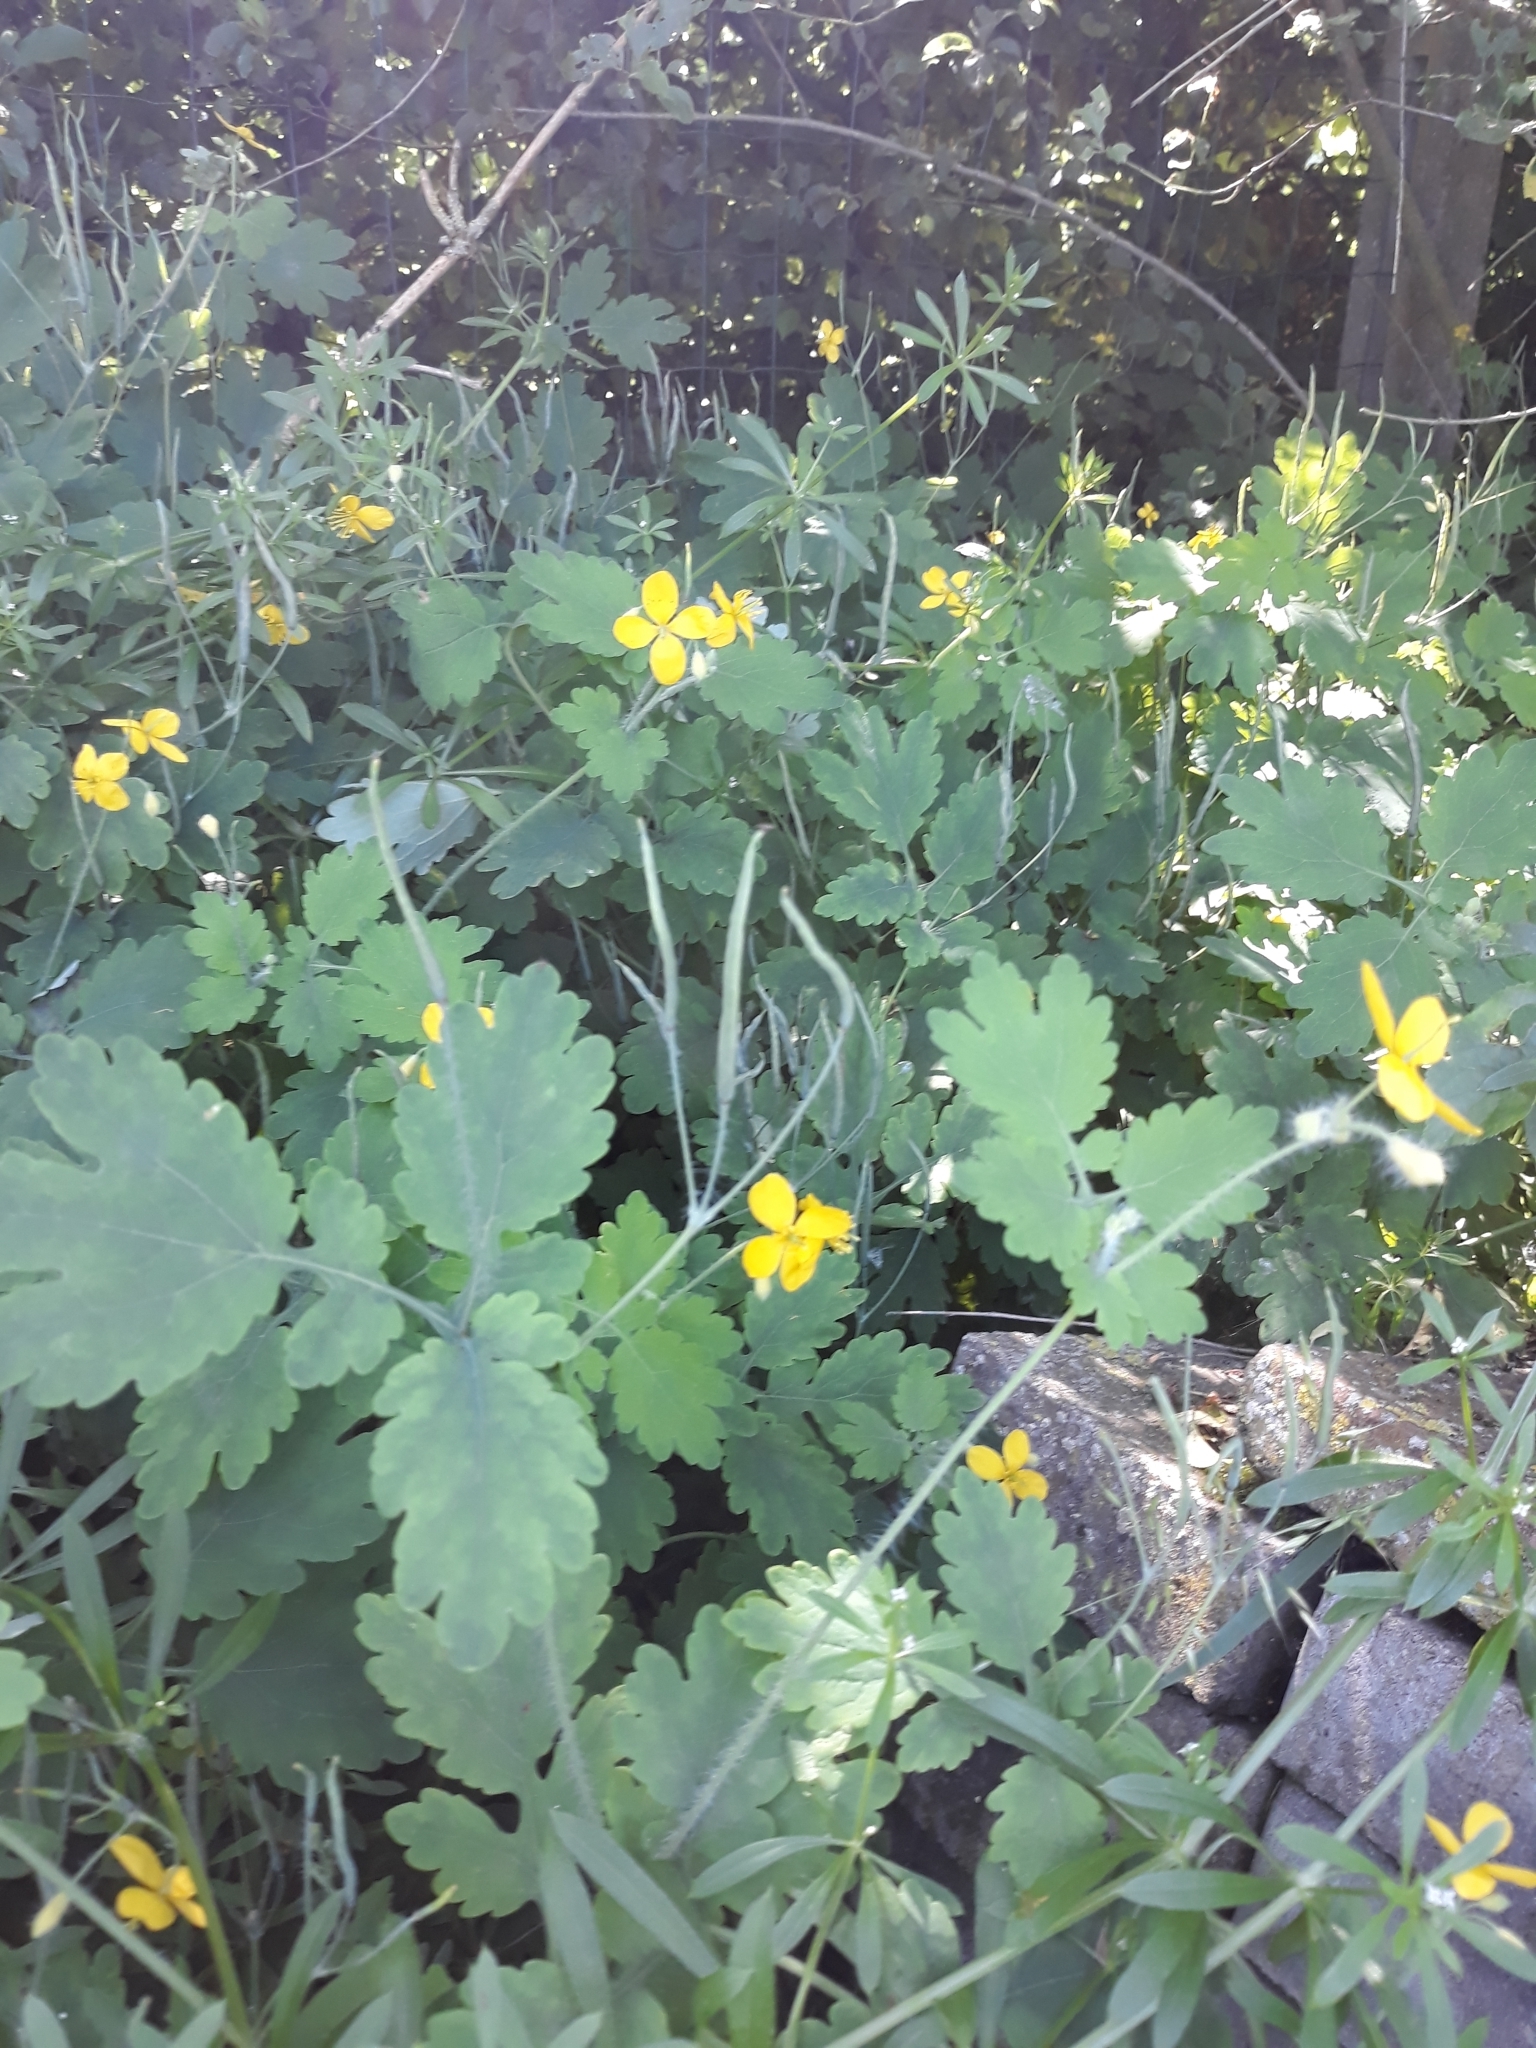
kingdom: Plantae
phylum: Tracheophyta
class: Magnoliopsida
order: Ranunculales
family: Papaveraceae
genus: Chelidonium
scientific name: Chelidonium majus
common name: Greater celandine
